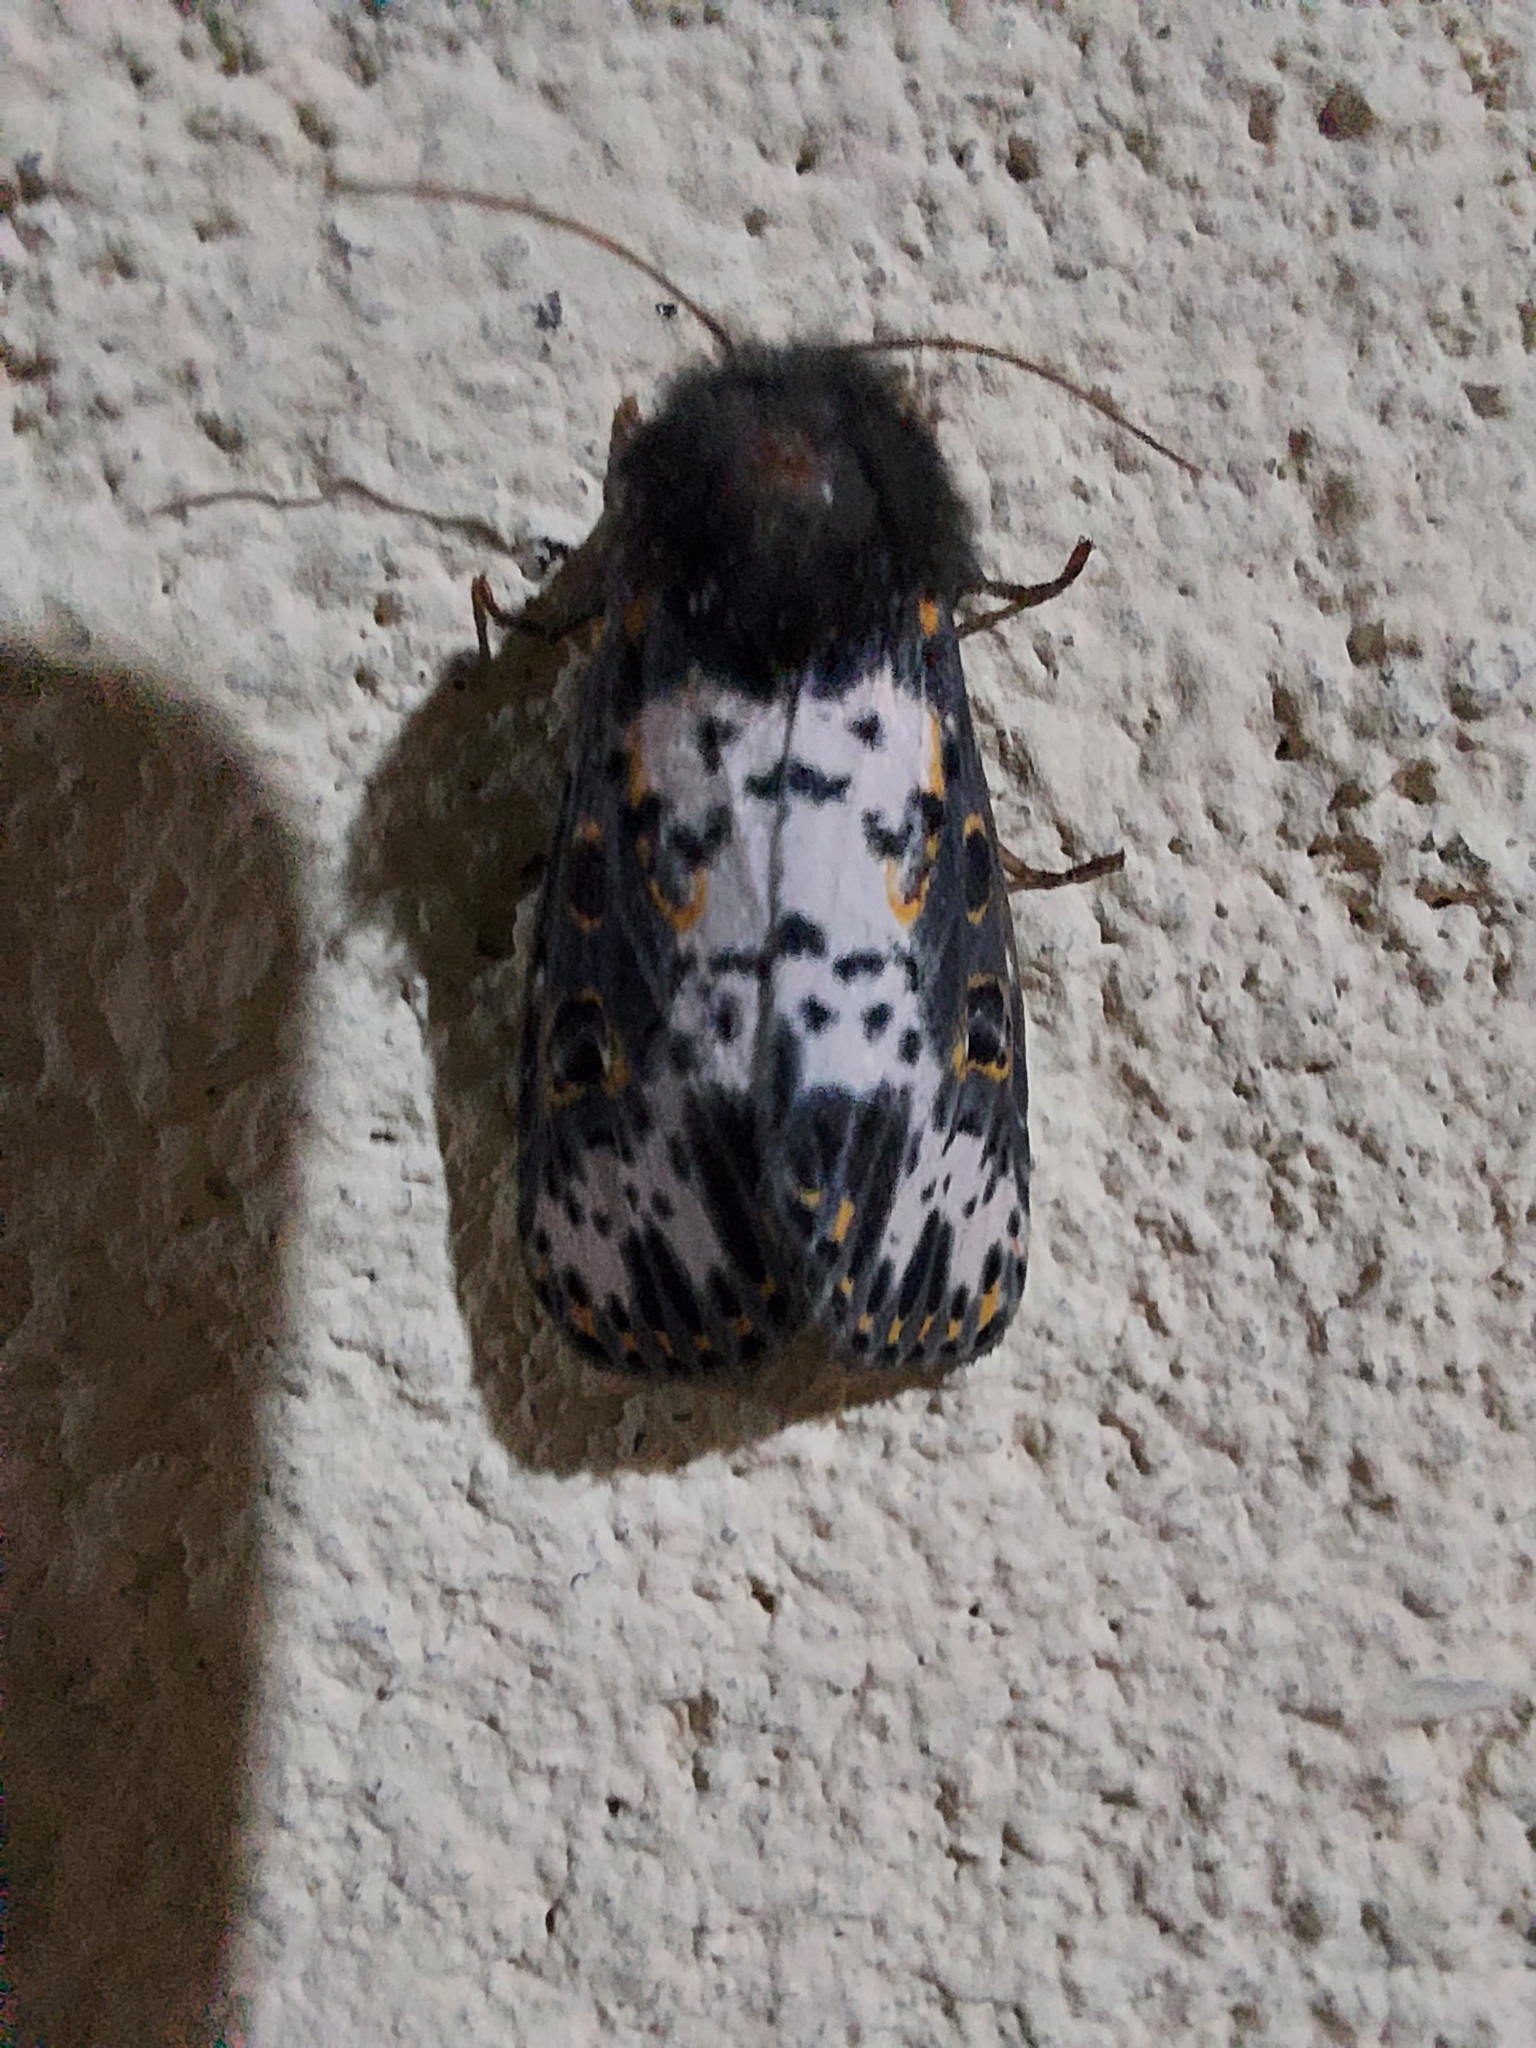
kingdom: Animalia
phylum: Arthropoda
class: Insecta
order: Lepidoptera
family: Noctuidae
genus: Xanthopastis
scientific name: Xanthopastis timais
